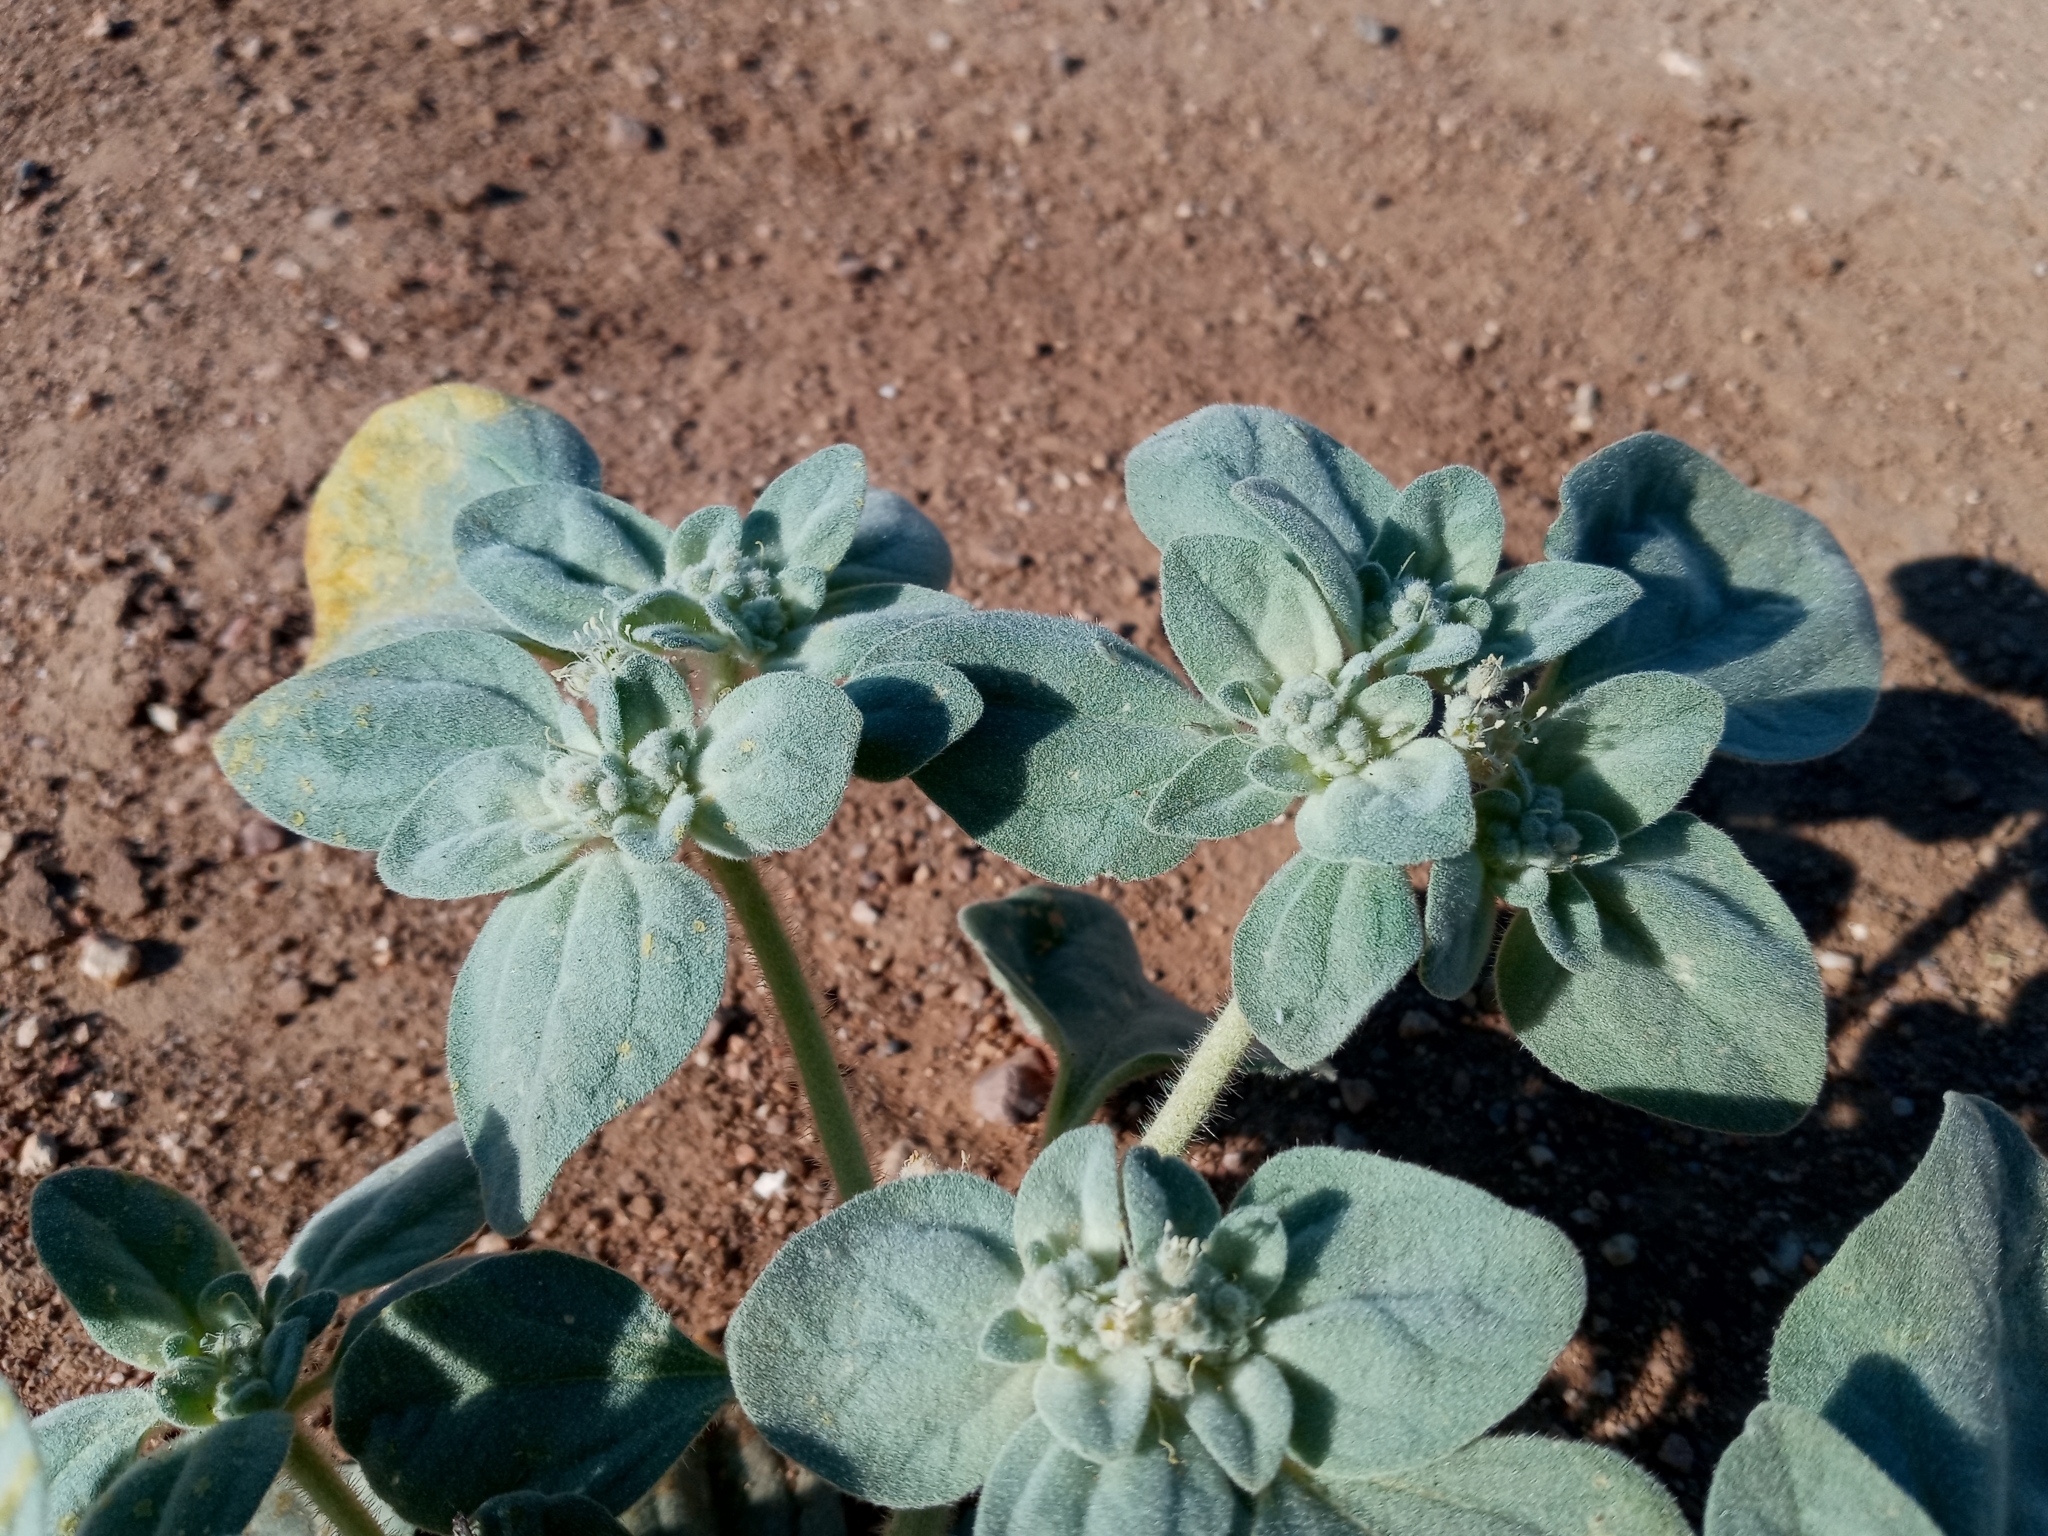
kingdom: Plantae
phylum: Tracheophyta
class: Magnoliopsida
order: Malpighiales
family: Euphorbiaceae
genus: Croton
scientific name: Croton setiger
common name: Dove weed
